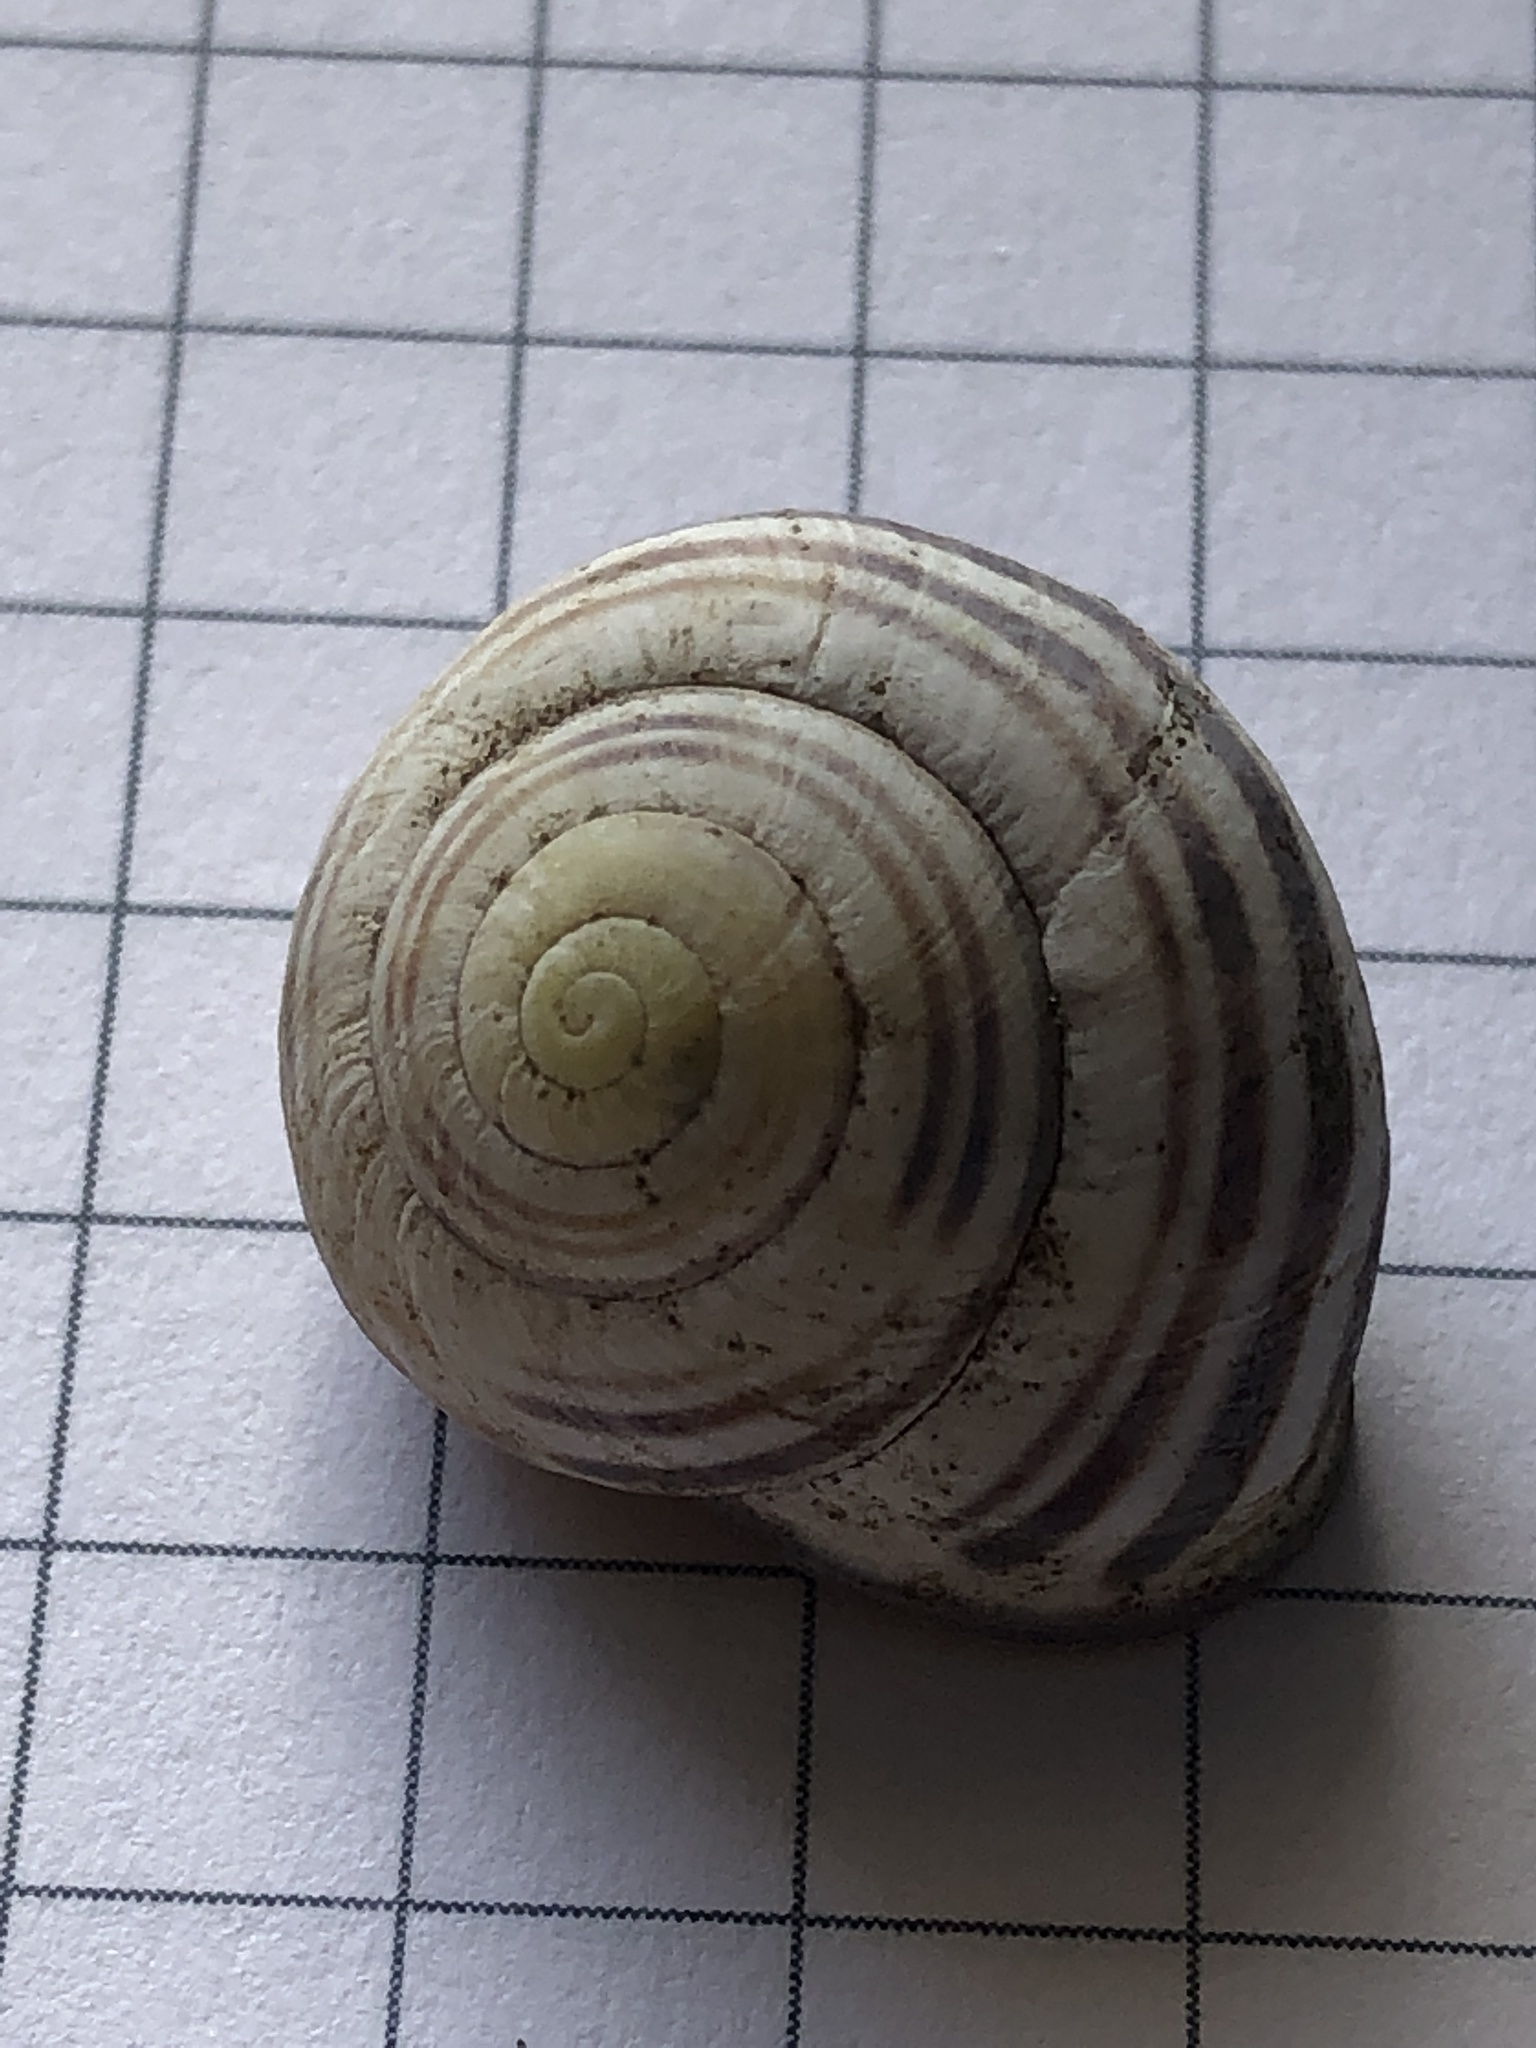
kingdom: Animalia
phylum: Mollusca
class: Gastropoda
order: Stylommatophora
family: Helicidae
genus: Cepaea
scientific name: Cepaea nemoralis
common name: Grovesnail
